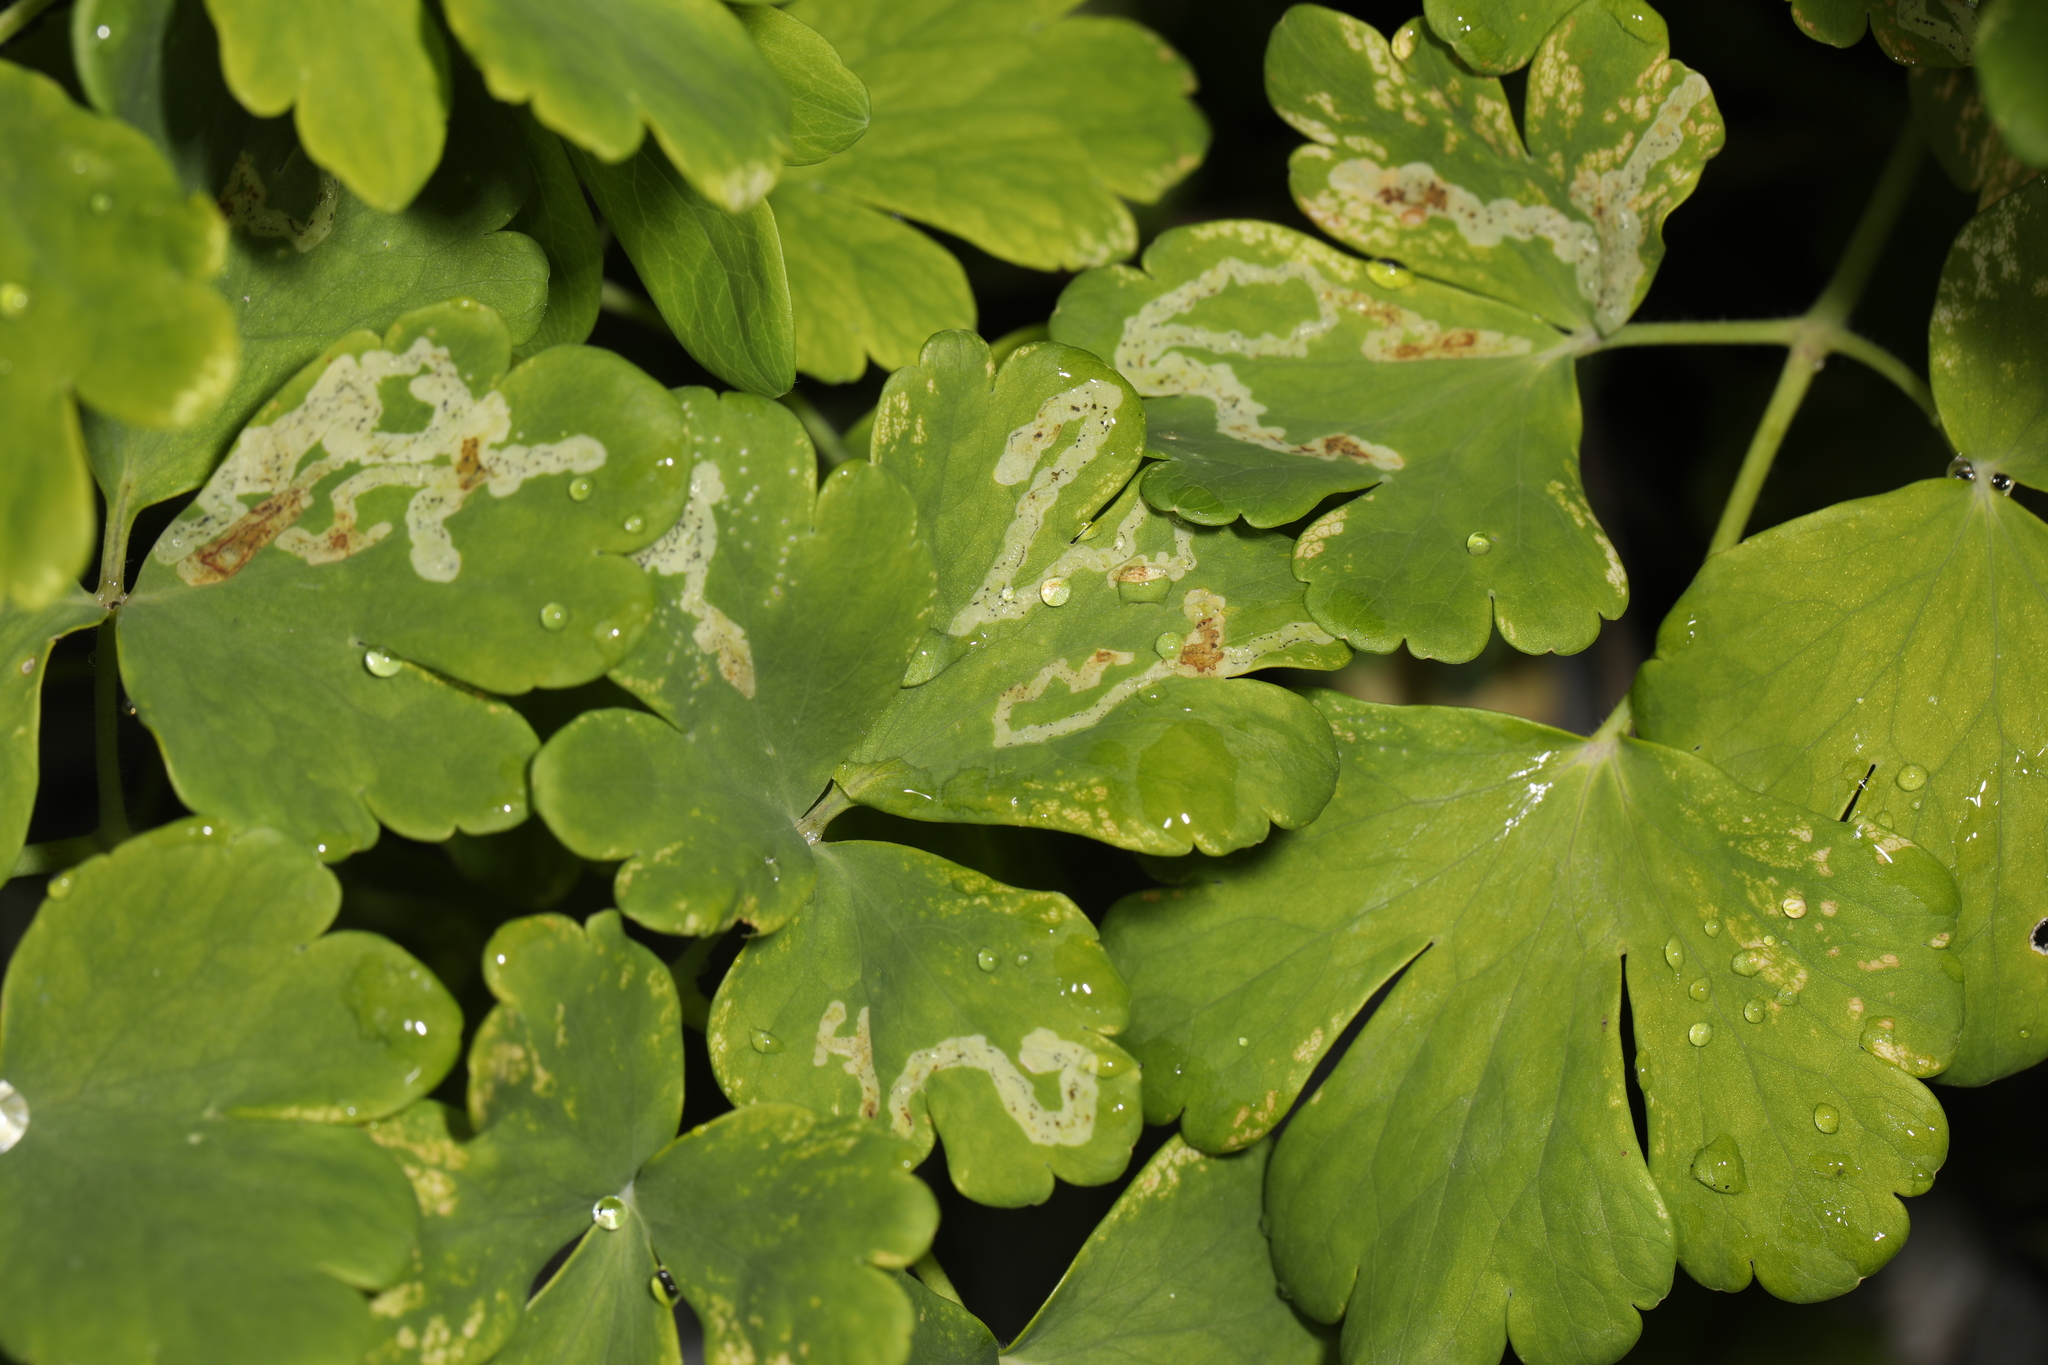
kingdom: Animalia
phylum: Arthropoda
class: Insecta
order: Diptera
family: Agromyzidae
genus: Phytomyza
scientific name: Phytomyza
